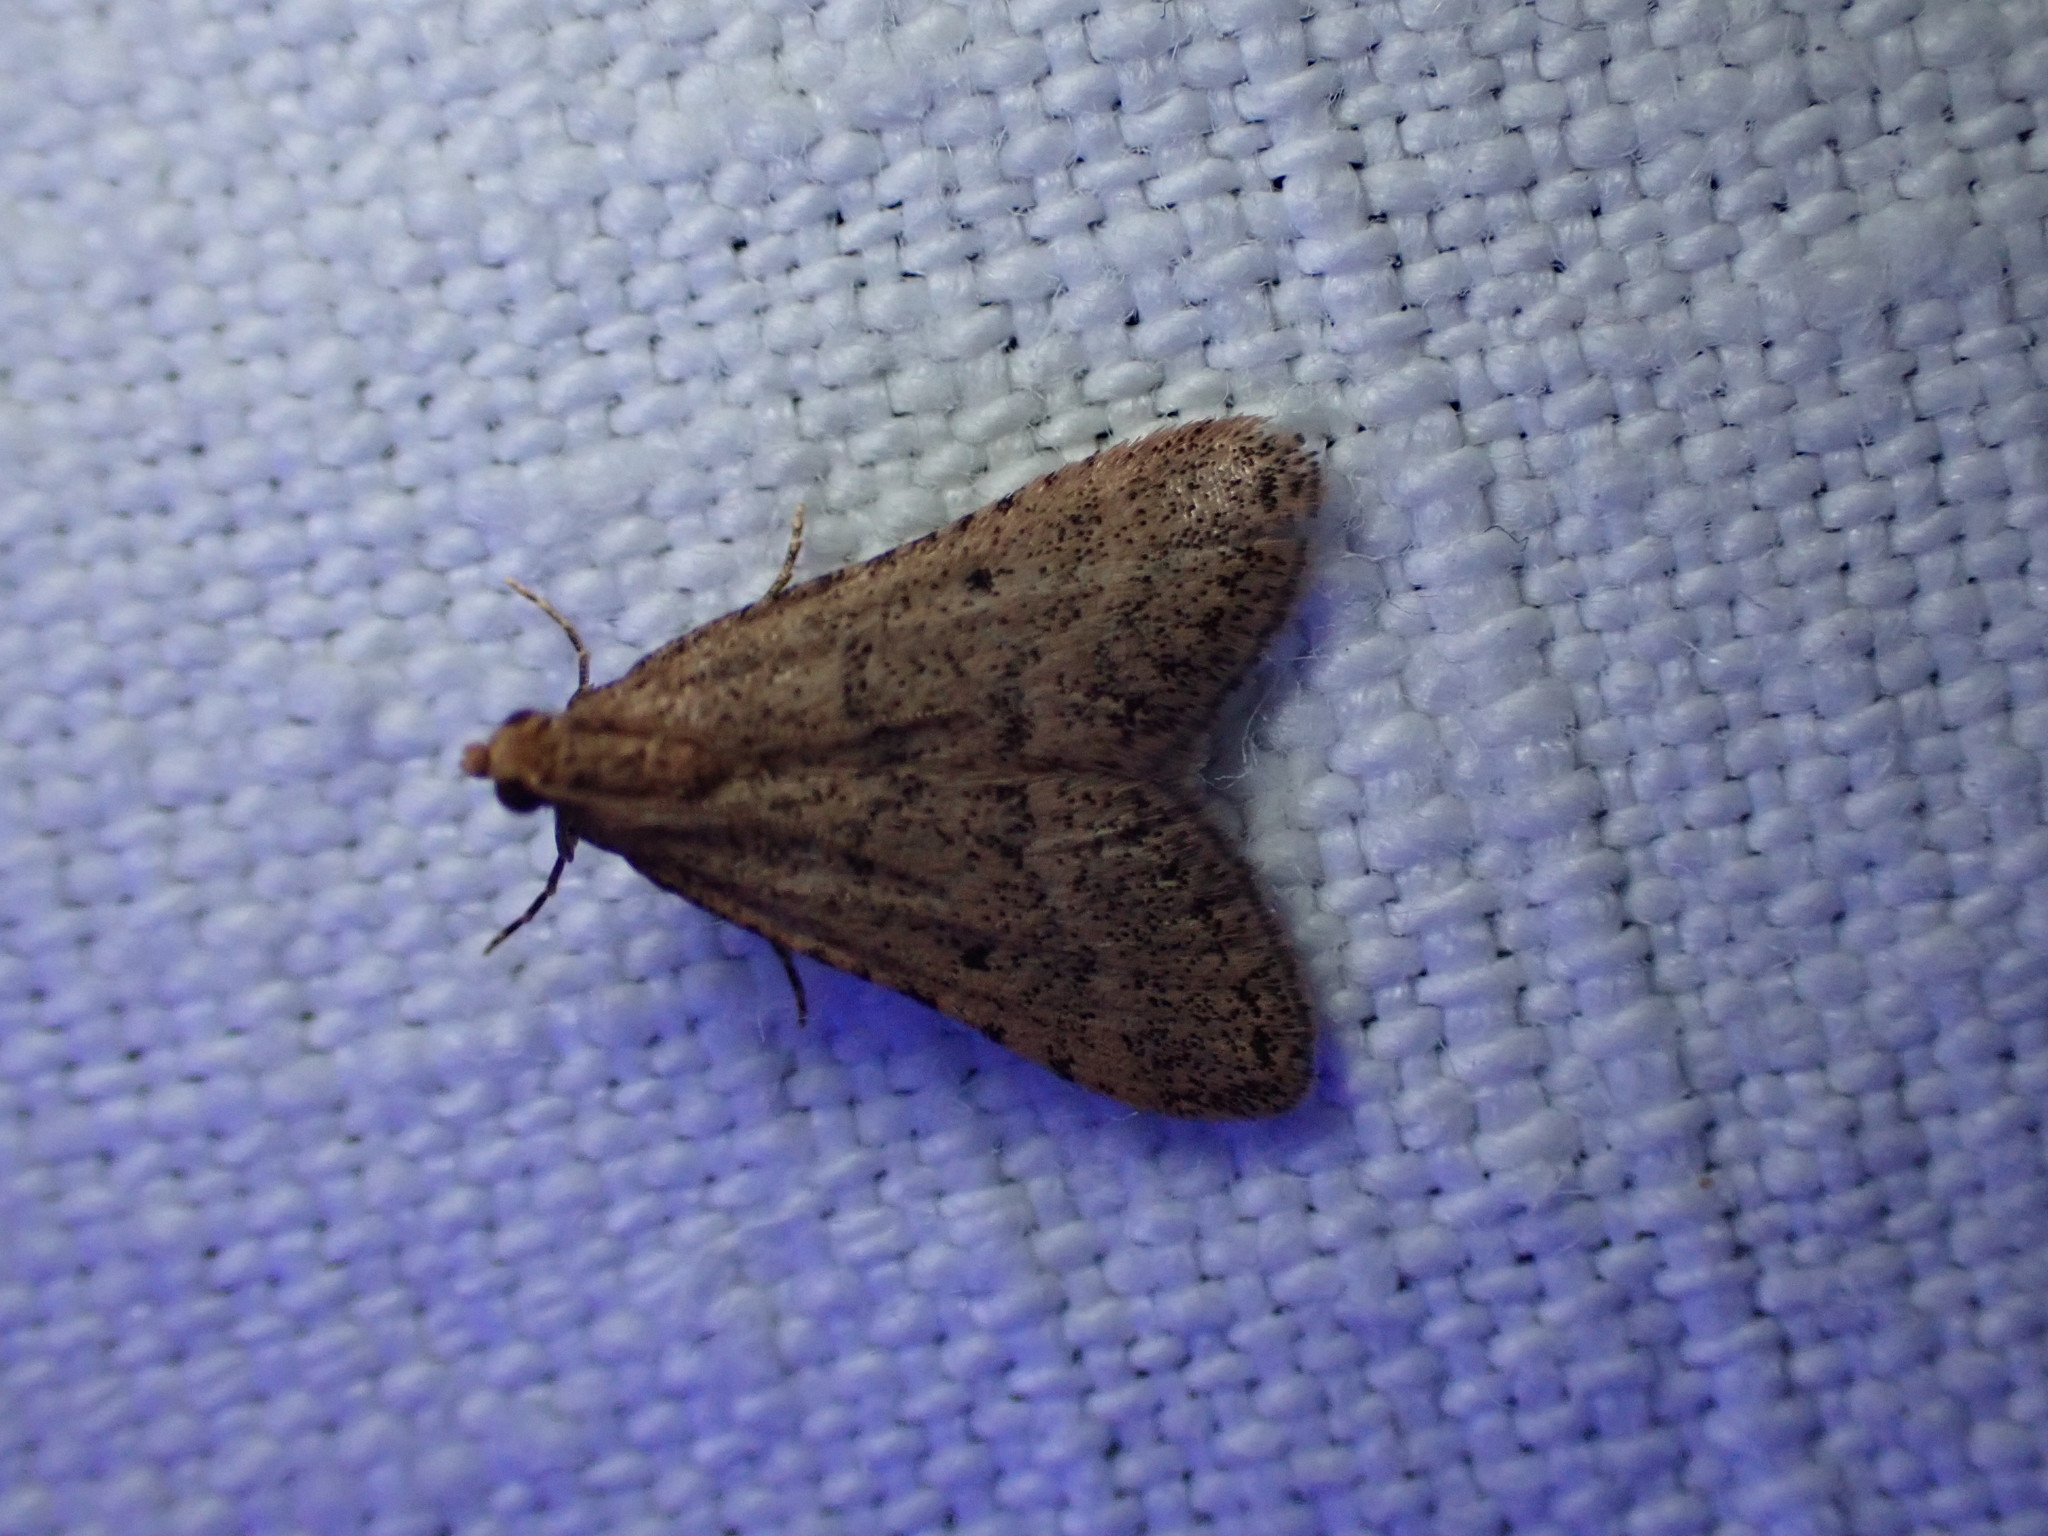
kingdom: Animalia
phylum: Arthropoda
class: Insecta
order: Lepidoptera
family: Pyralidae
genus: Bostra
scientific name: Bostra obsoletalis
